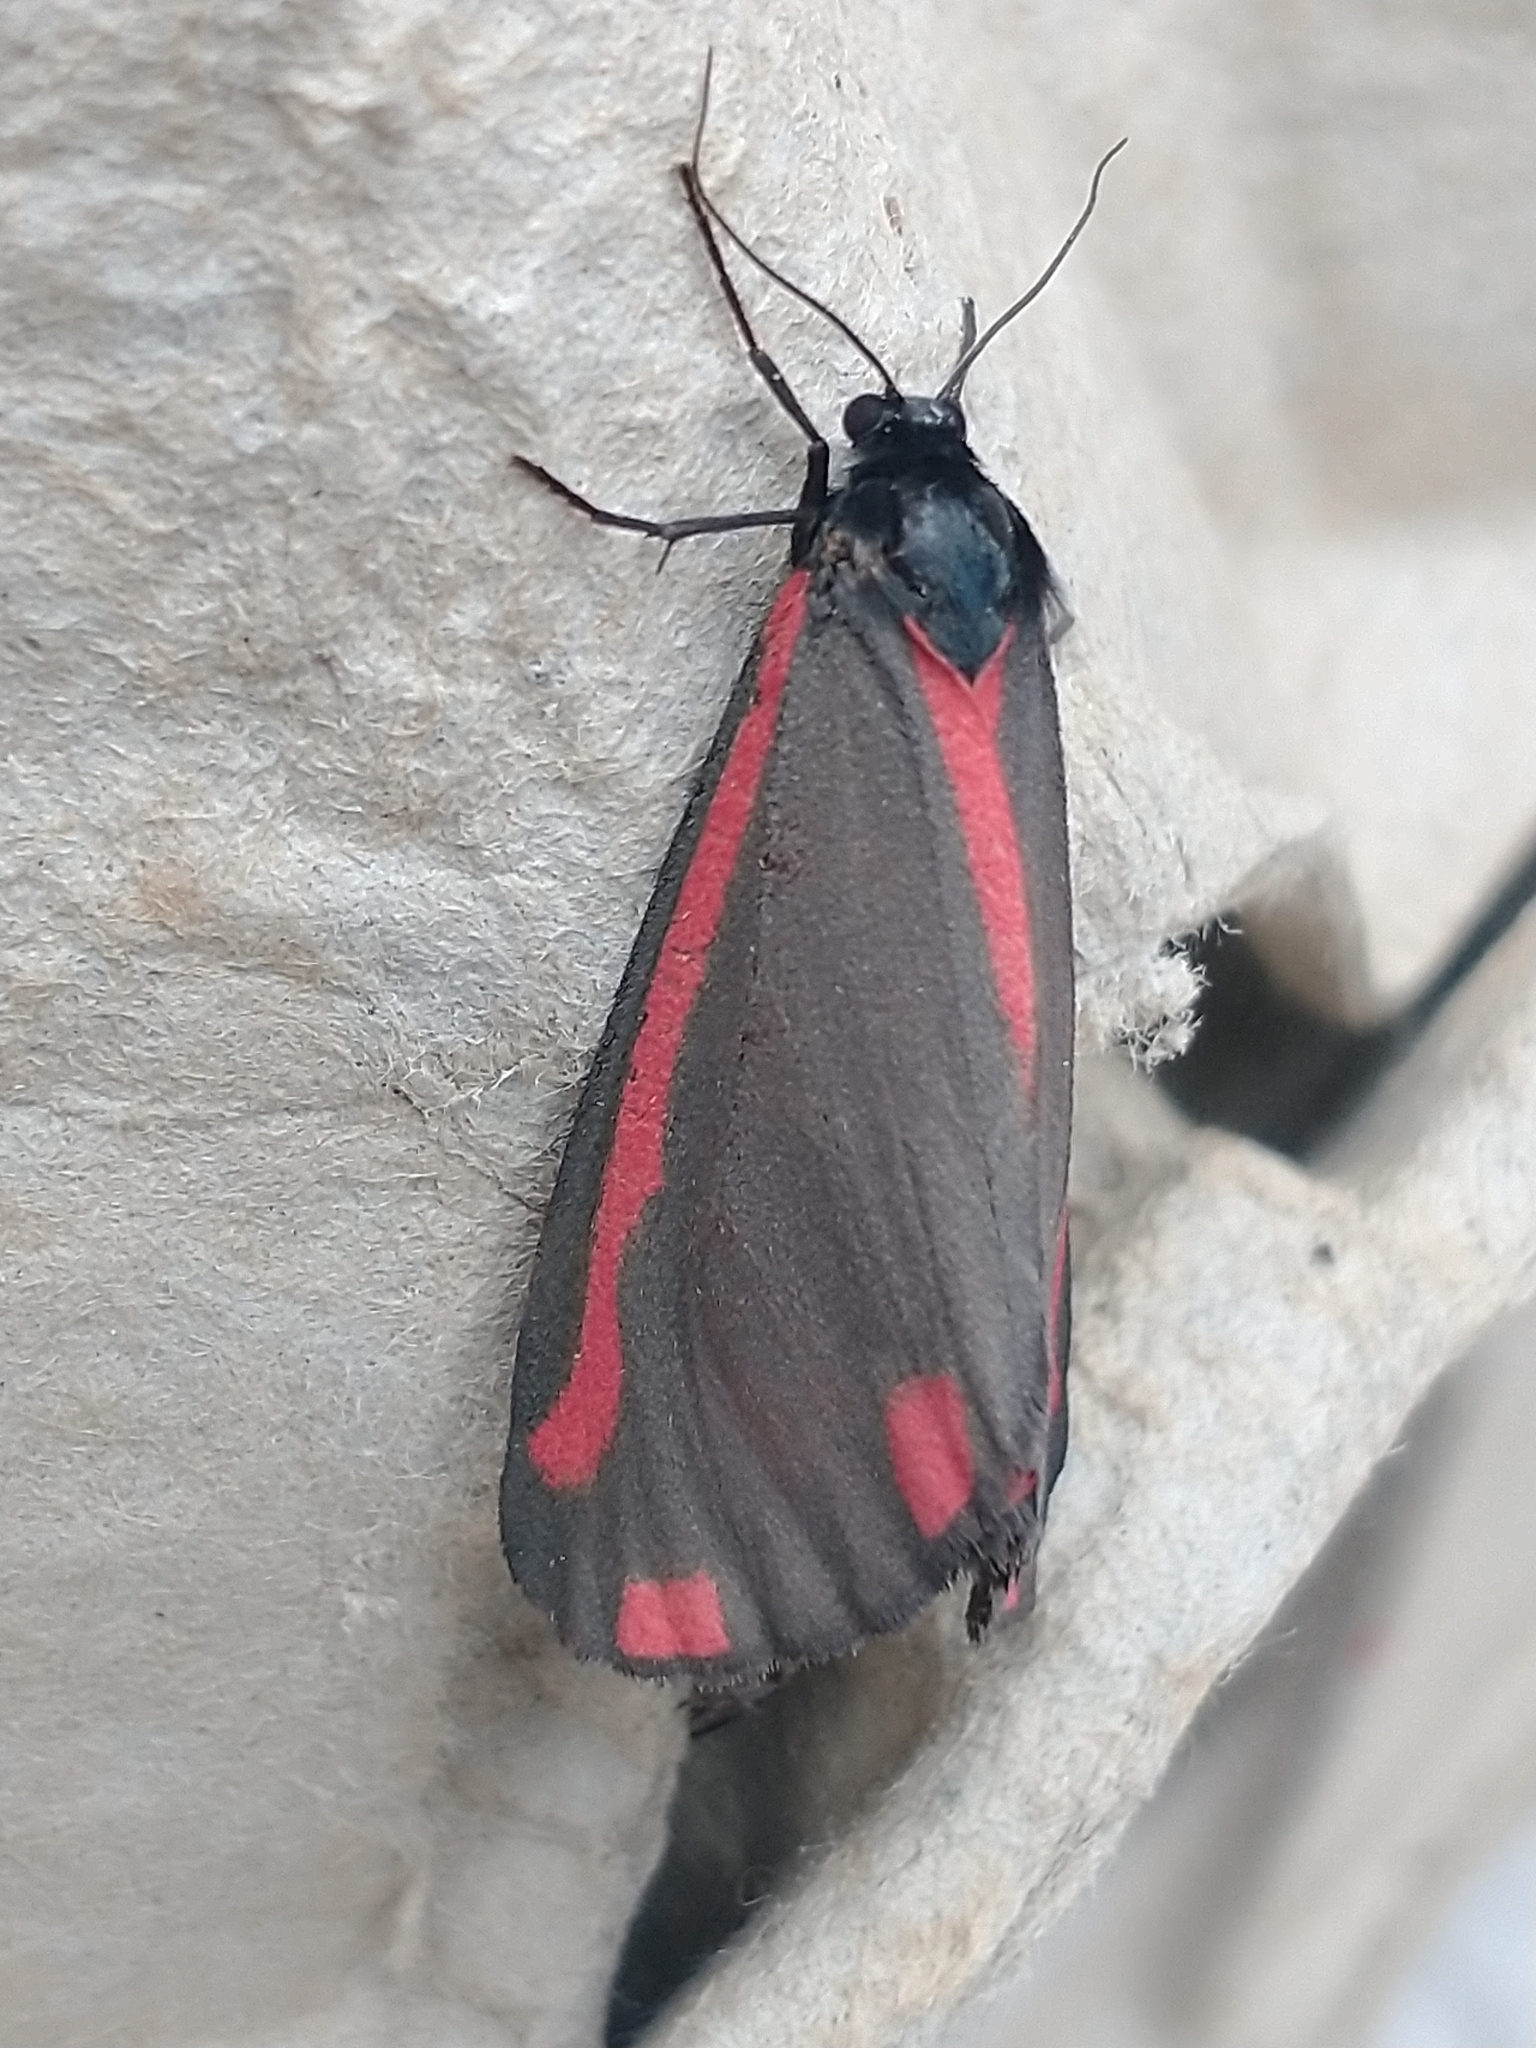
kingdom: Animalia
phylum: Arthropoda
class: Insecta
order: Lepidoptera
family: Erebidae
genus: Tyria
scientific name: Tyria jacobaeae
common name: Cinnabar
